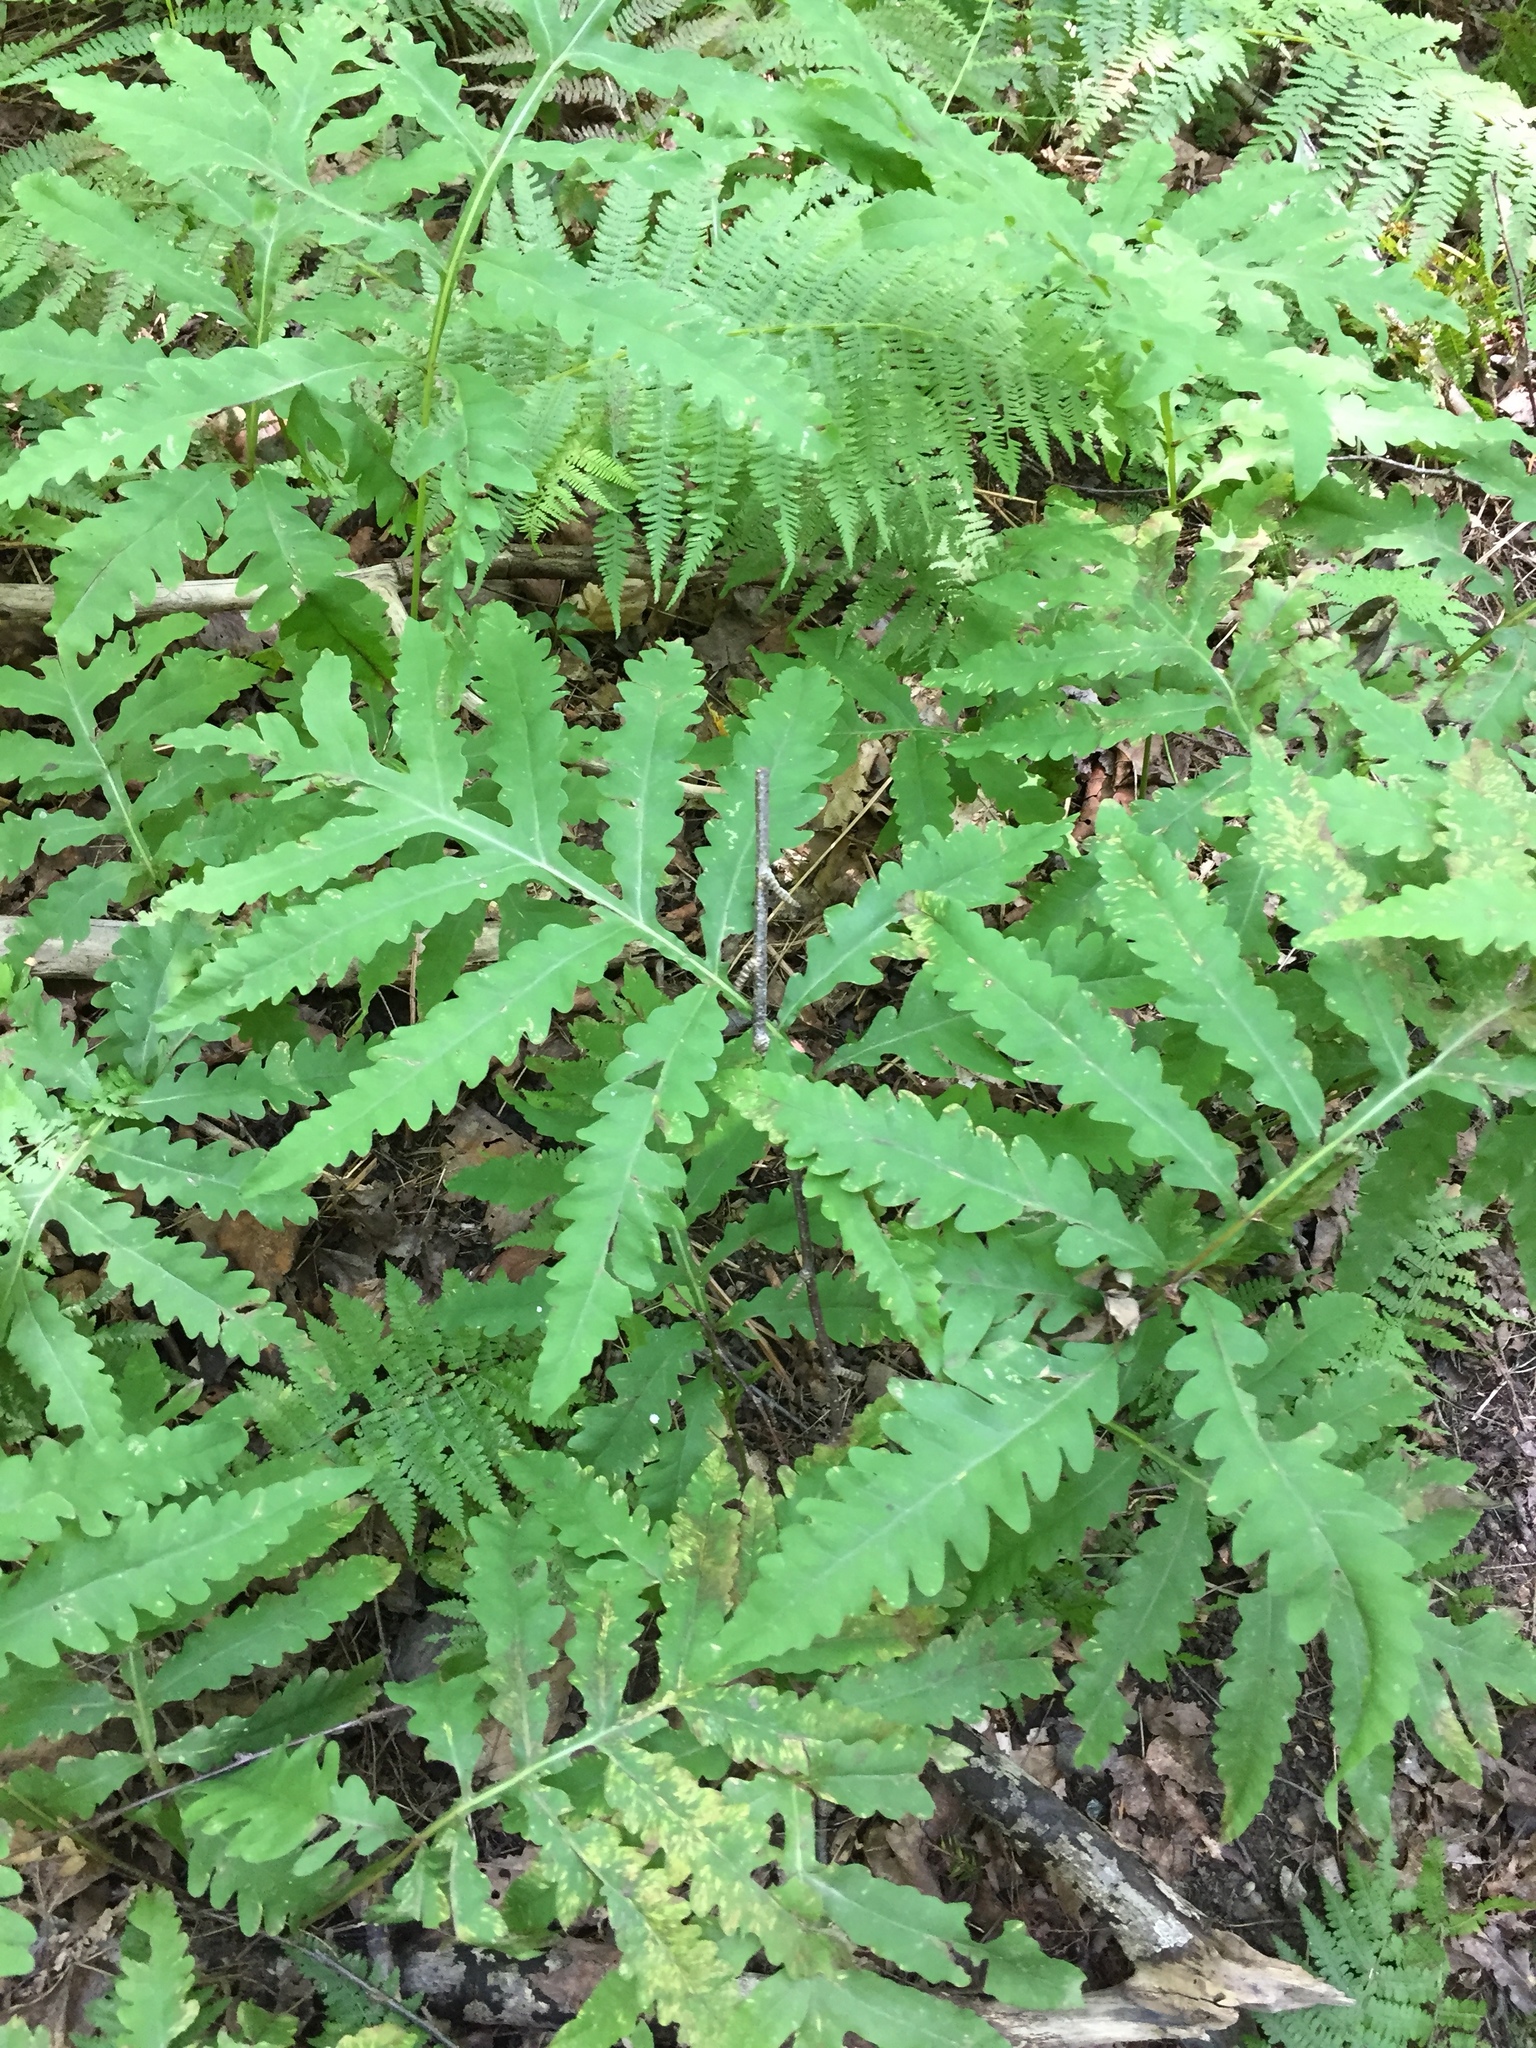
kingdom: Plantae
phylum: Tracheophyta
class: Polypodiopsida
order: Polypodiales
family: Onocleaceae
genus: Onoclea
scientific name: Onoclea sensibilis
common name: Sensitive fern
